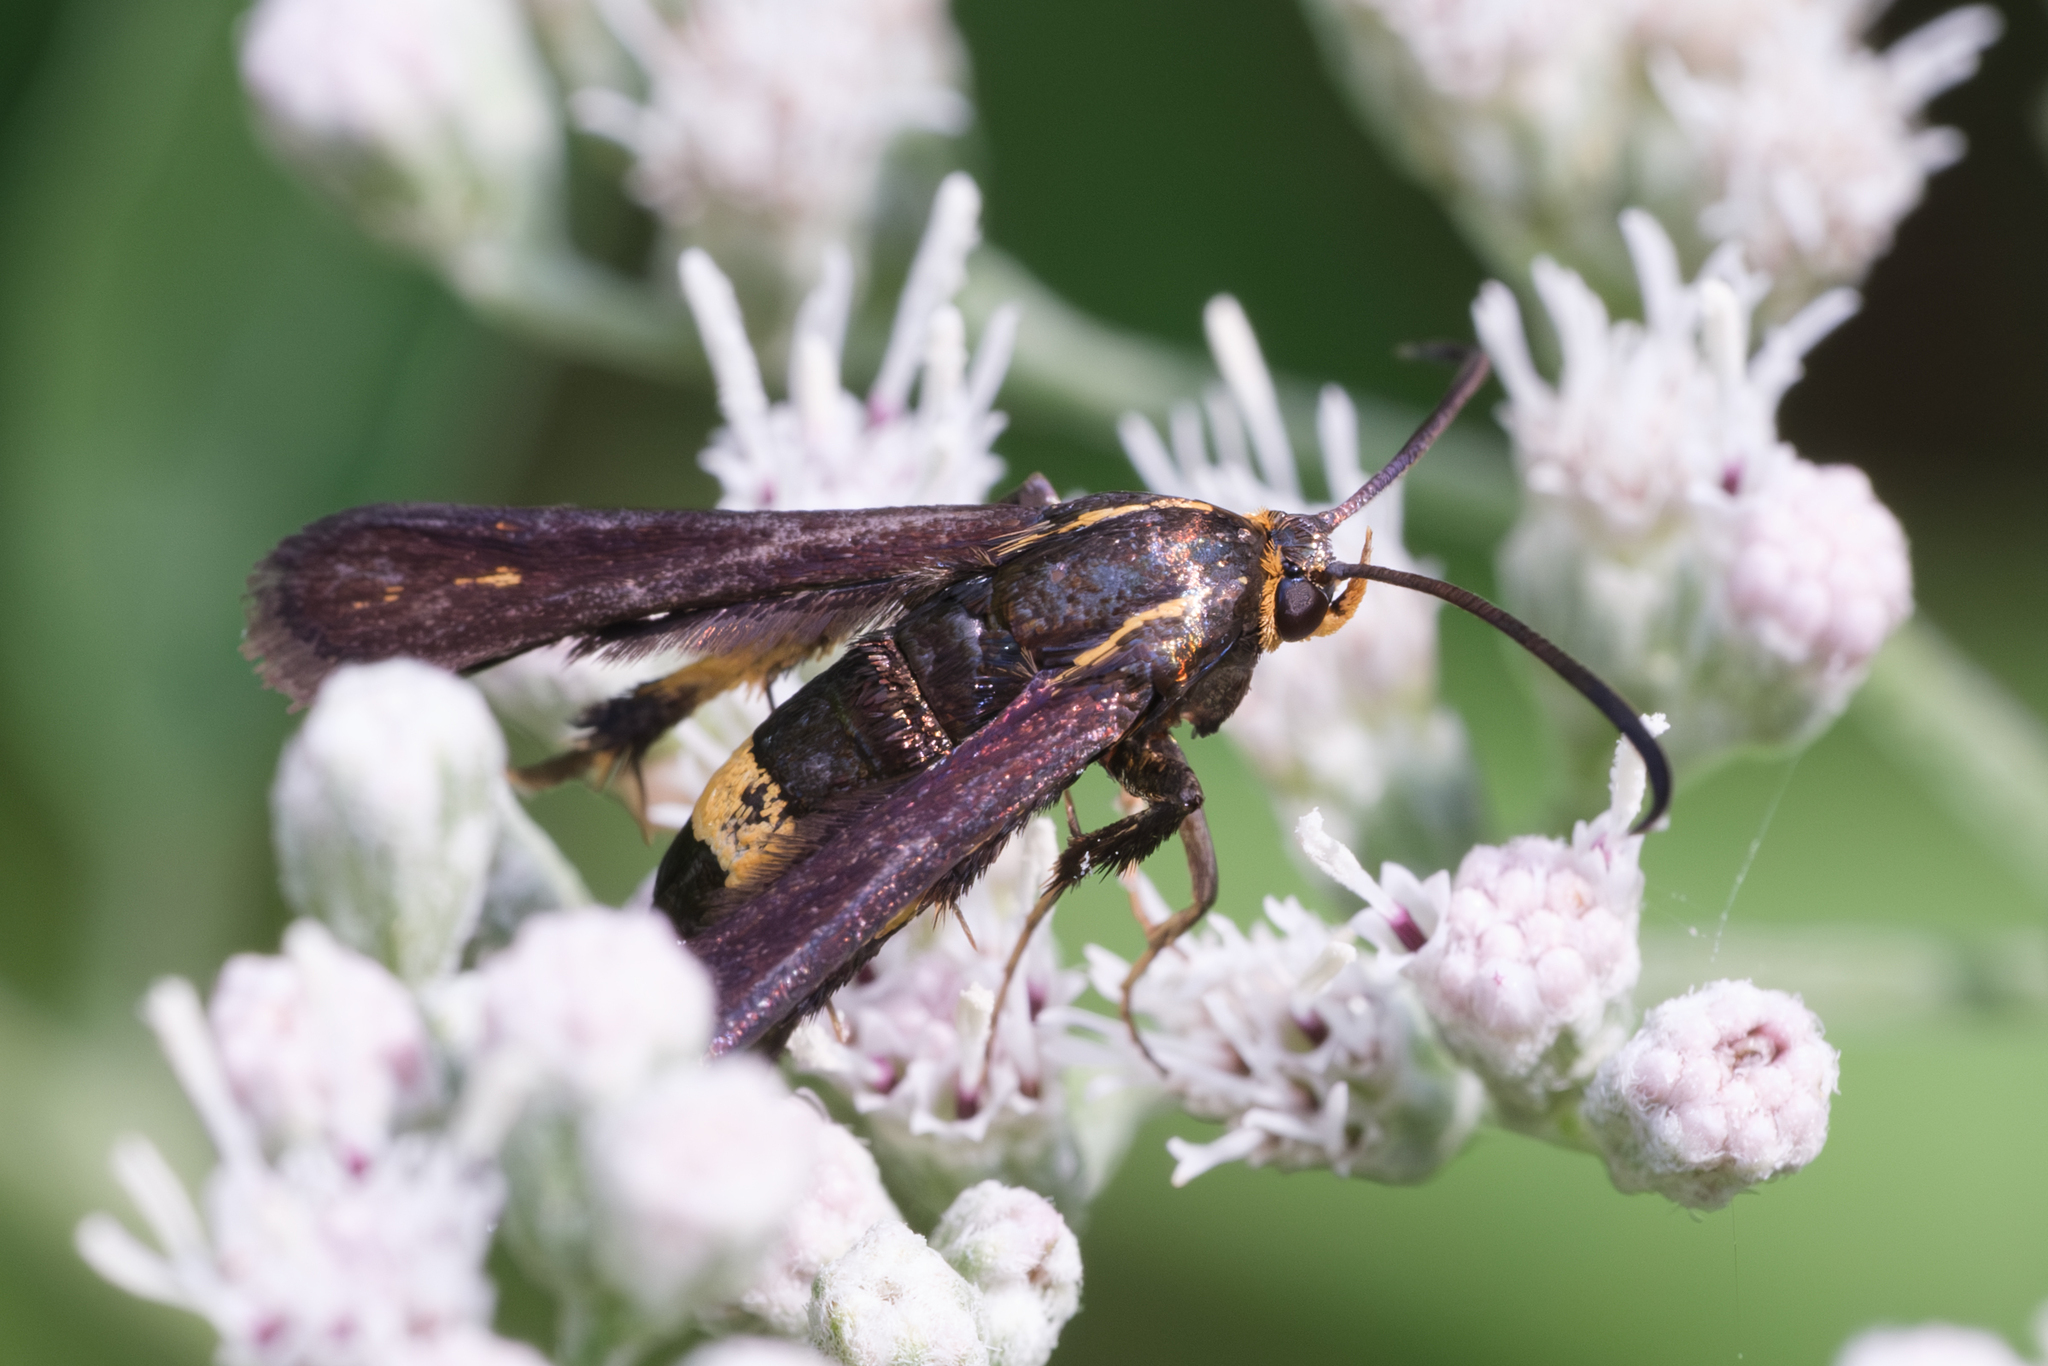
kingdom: Animalia
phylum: Arthropoda
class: Insecta
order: Lepidoptera
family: Sesiidae
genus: Carmenta
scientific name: Carmenta pyralidiformis
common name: Boneset borer moth
